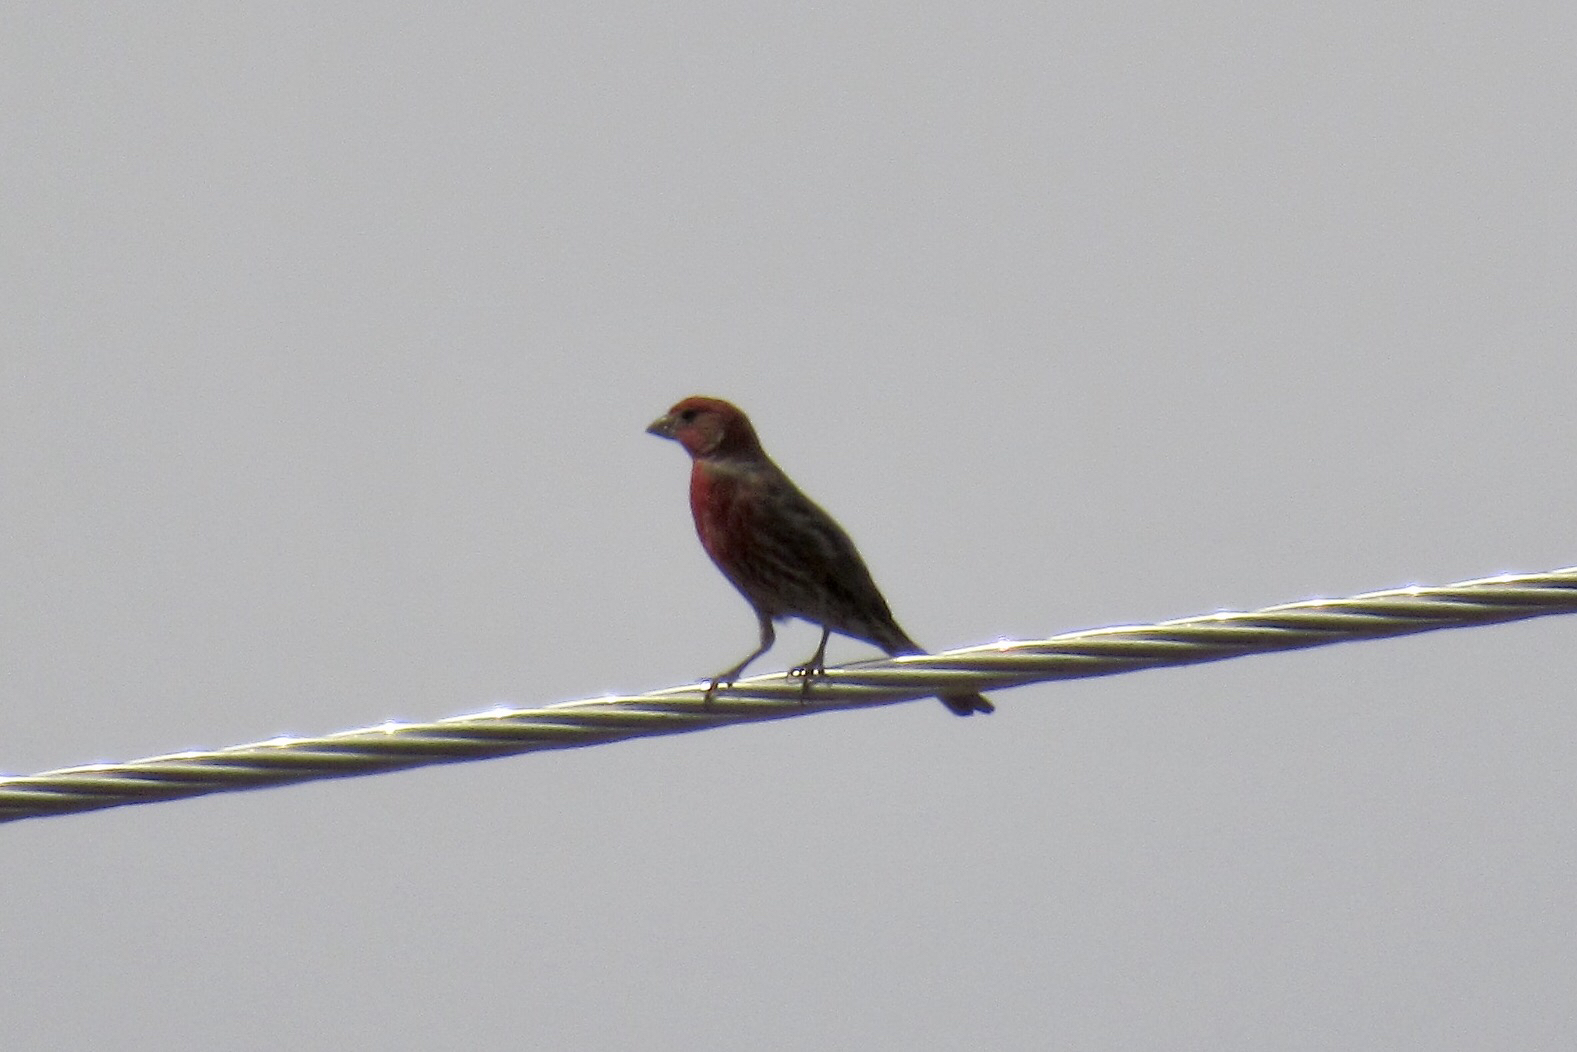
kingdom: Animalia
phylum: Chordata
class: Aves
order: Passeriformes
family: Fringillidae
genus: Haemorhous
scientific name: Haemorhous mexicanus
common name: House finch
